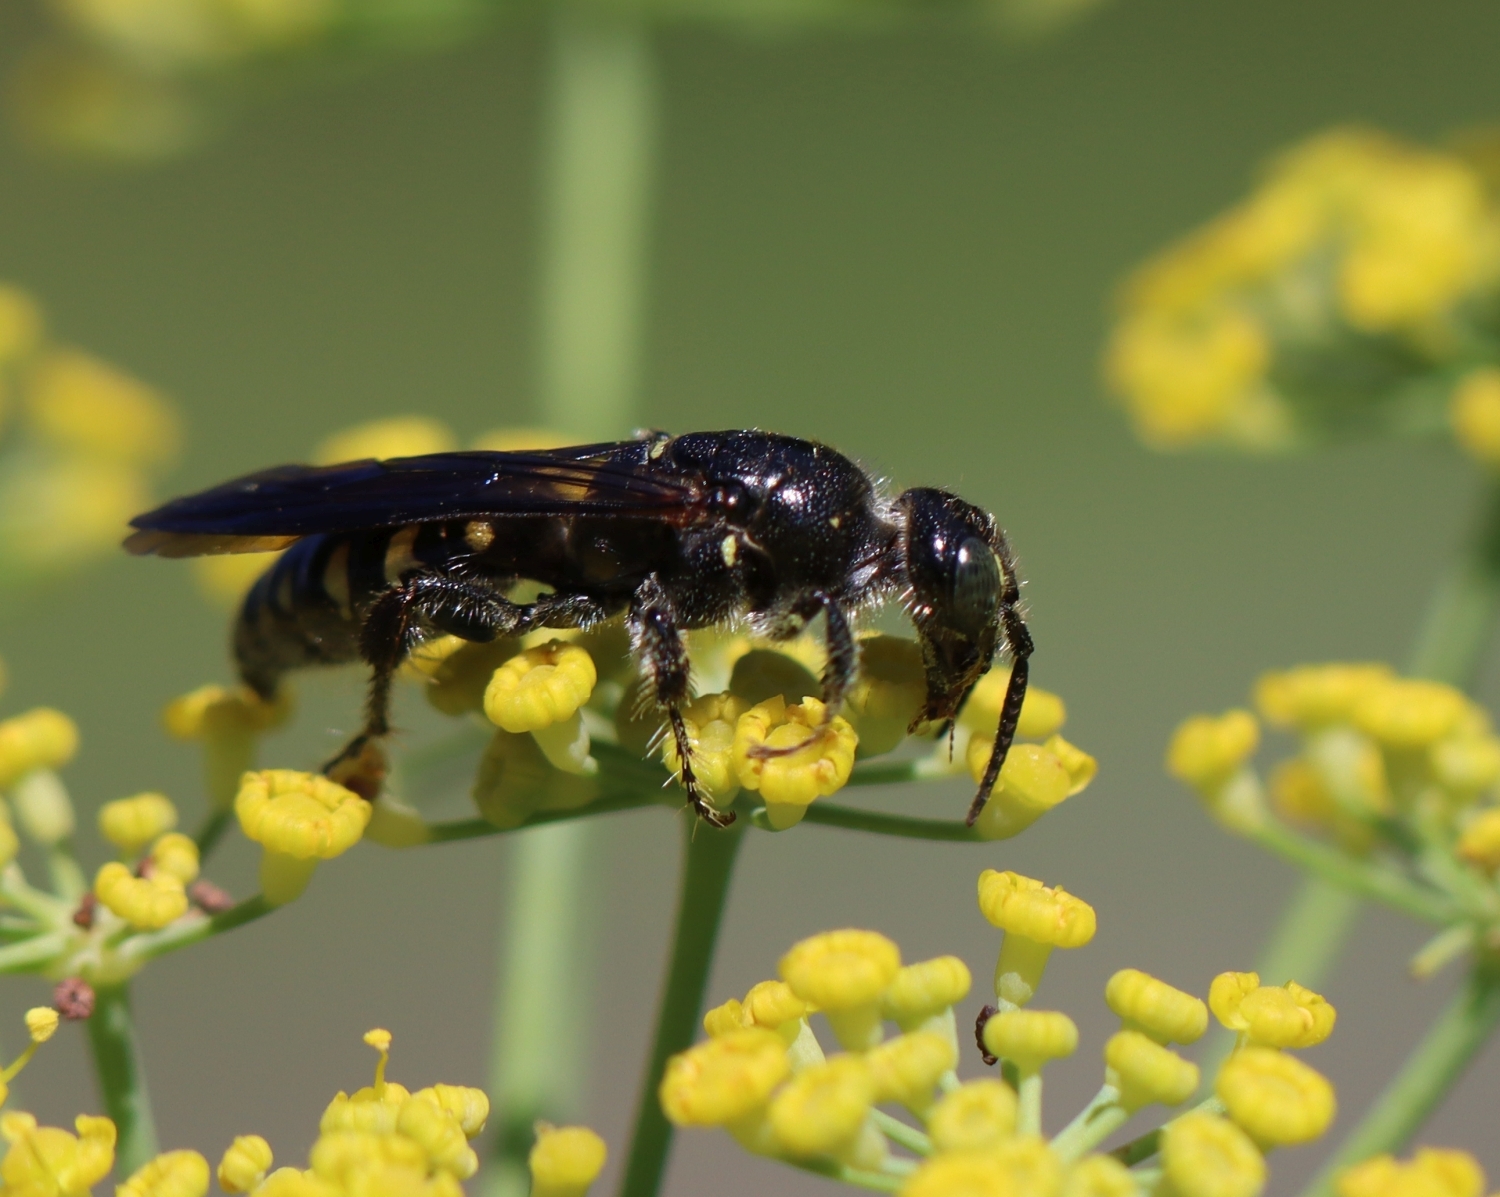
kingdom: Animalia
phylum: Arthropoda
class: Insecta
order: Hymenoptera
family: Tiphiidae
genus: Myzinum
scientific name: Myzinum obscurum
